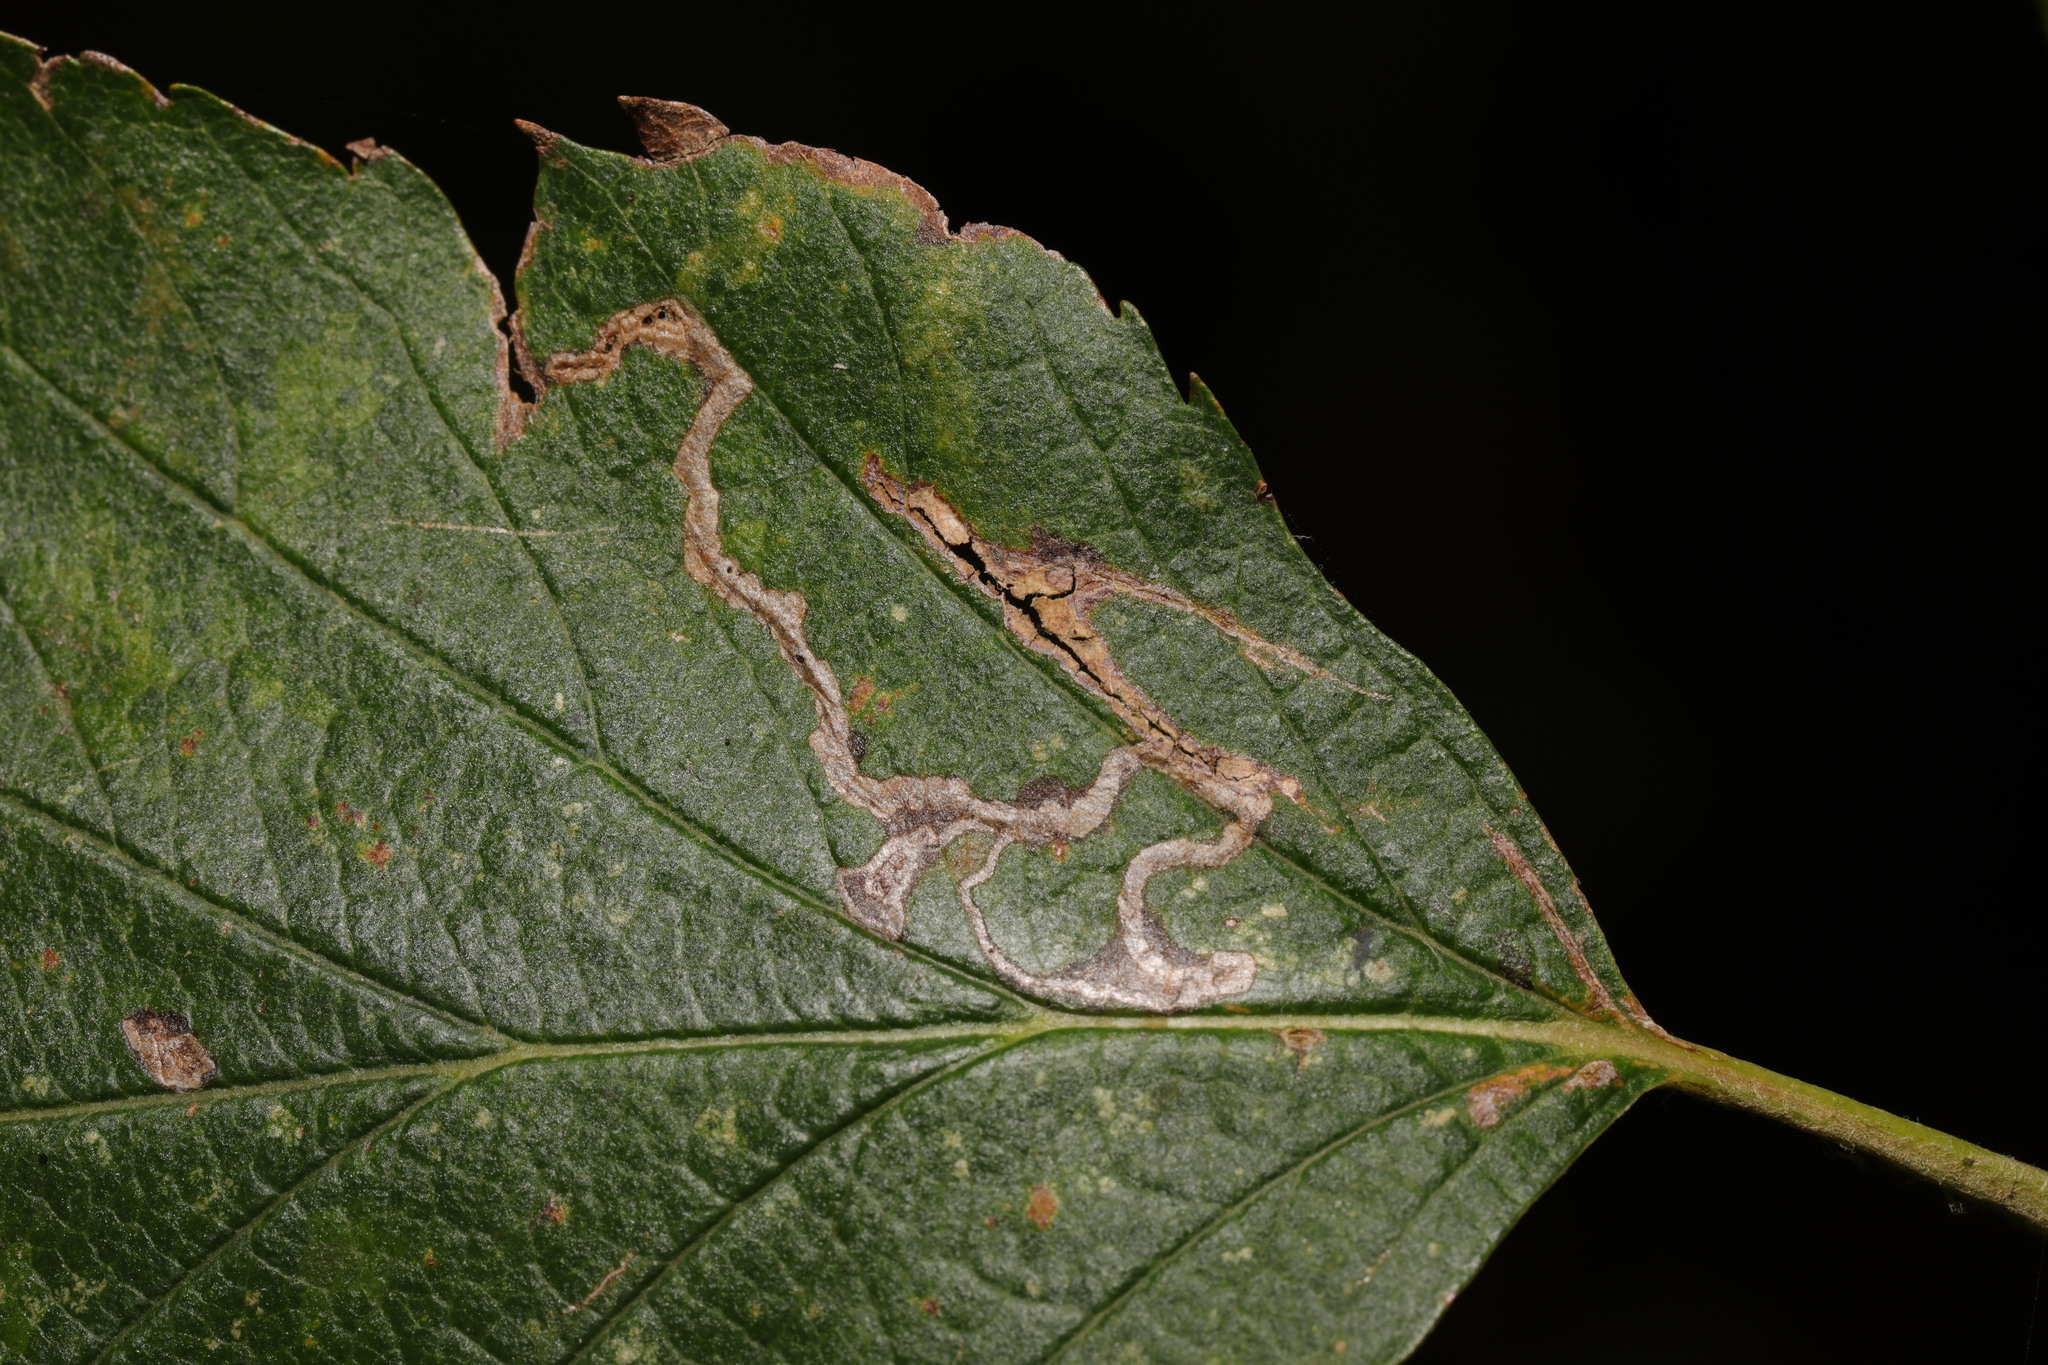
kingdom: Animalia
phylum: Arthropoda
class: Insecta
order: Lepidoptera
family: Lyonetiidae
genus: Lyonetia
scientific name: Lyonetia clerkella
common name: Apple leaf miner
